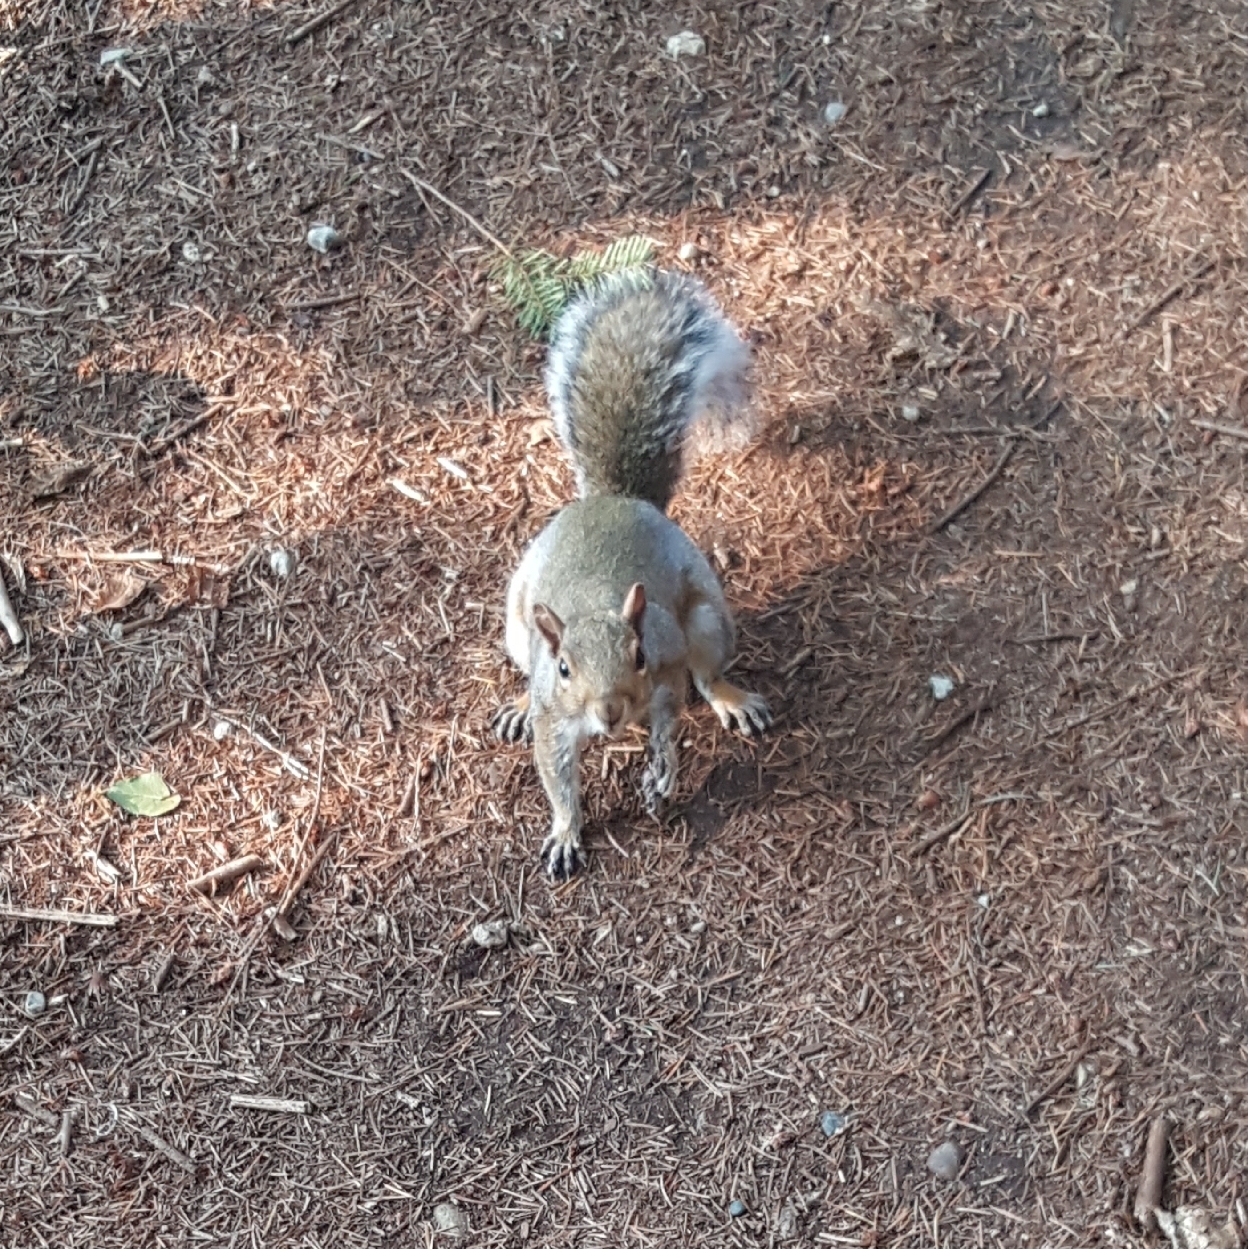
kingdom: Animalia
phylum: Chordata
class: Mammalia
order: Rodentia
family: Sciuridae
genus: Sciurus
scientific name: Sciurus carolinensis
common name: Eastern gray squirrel
